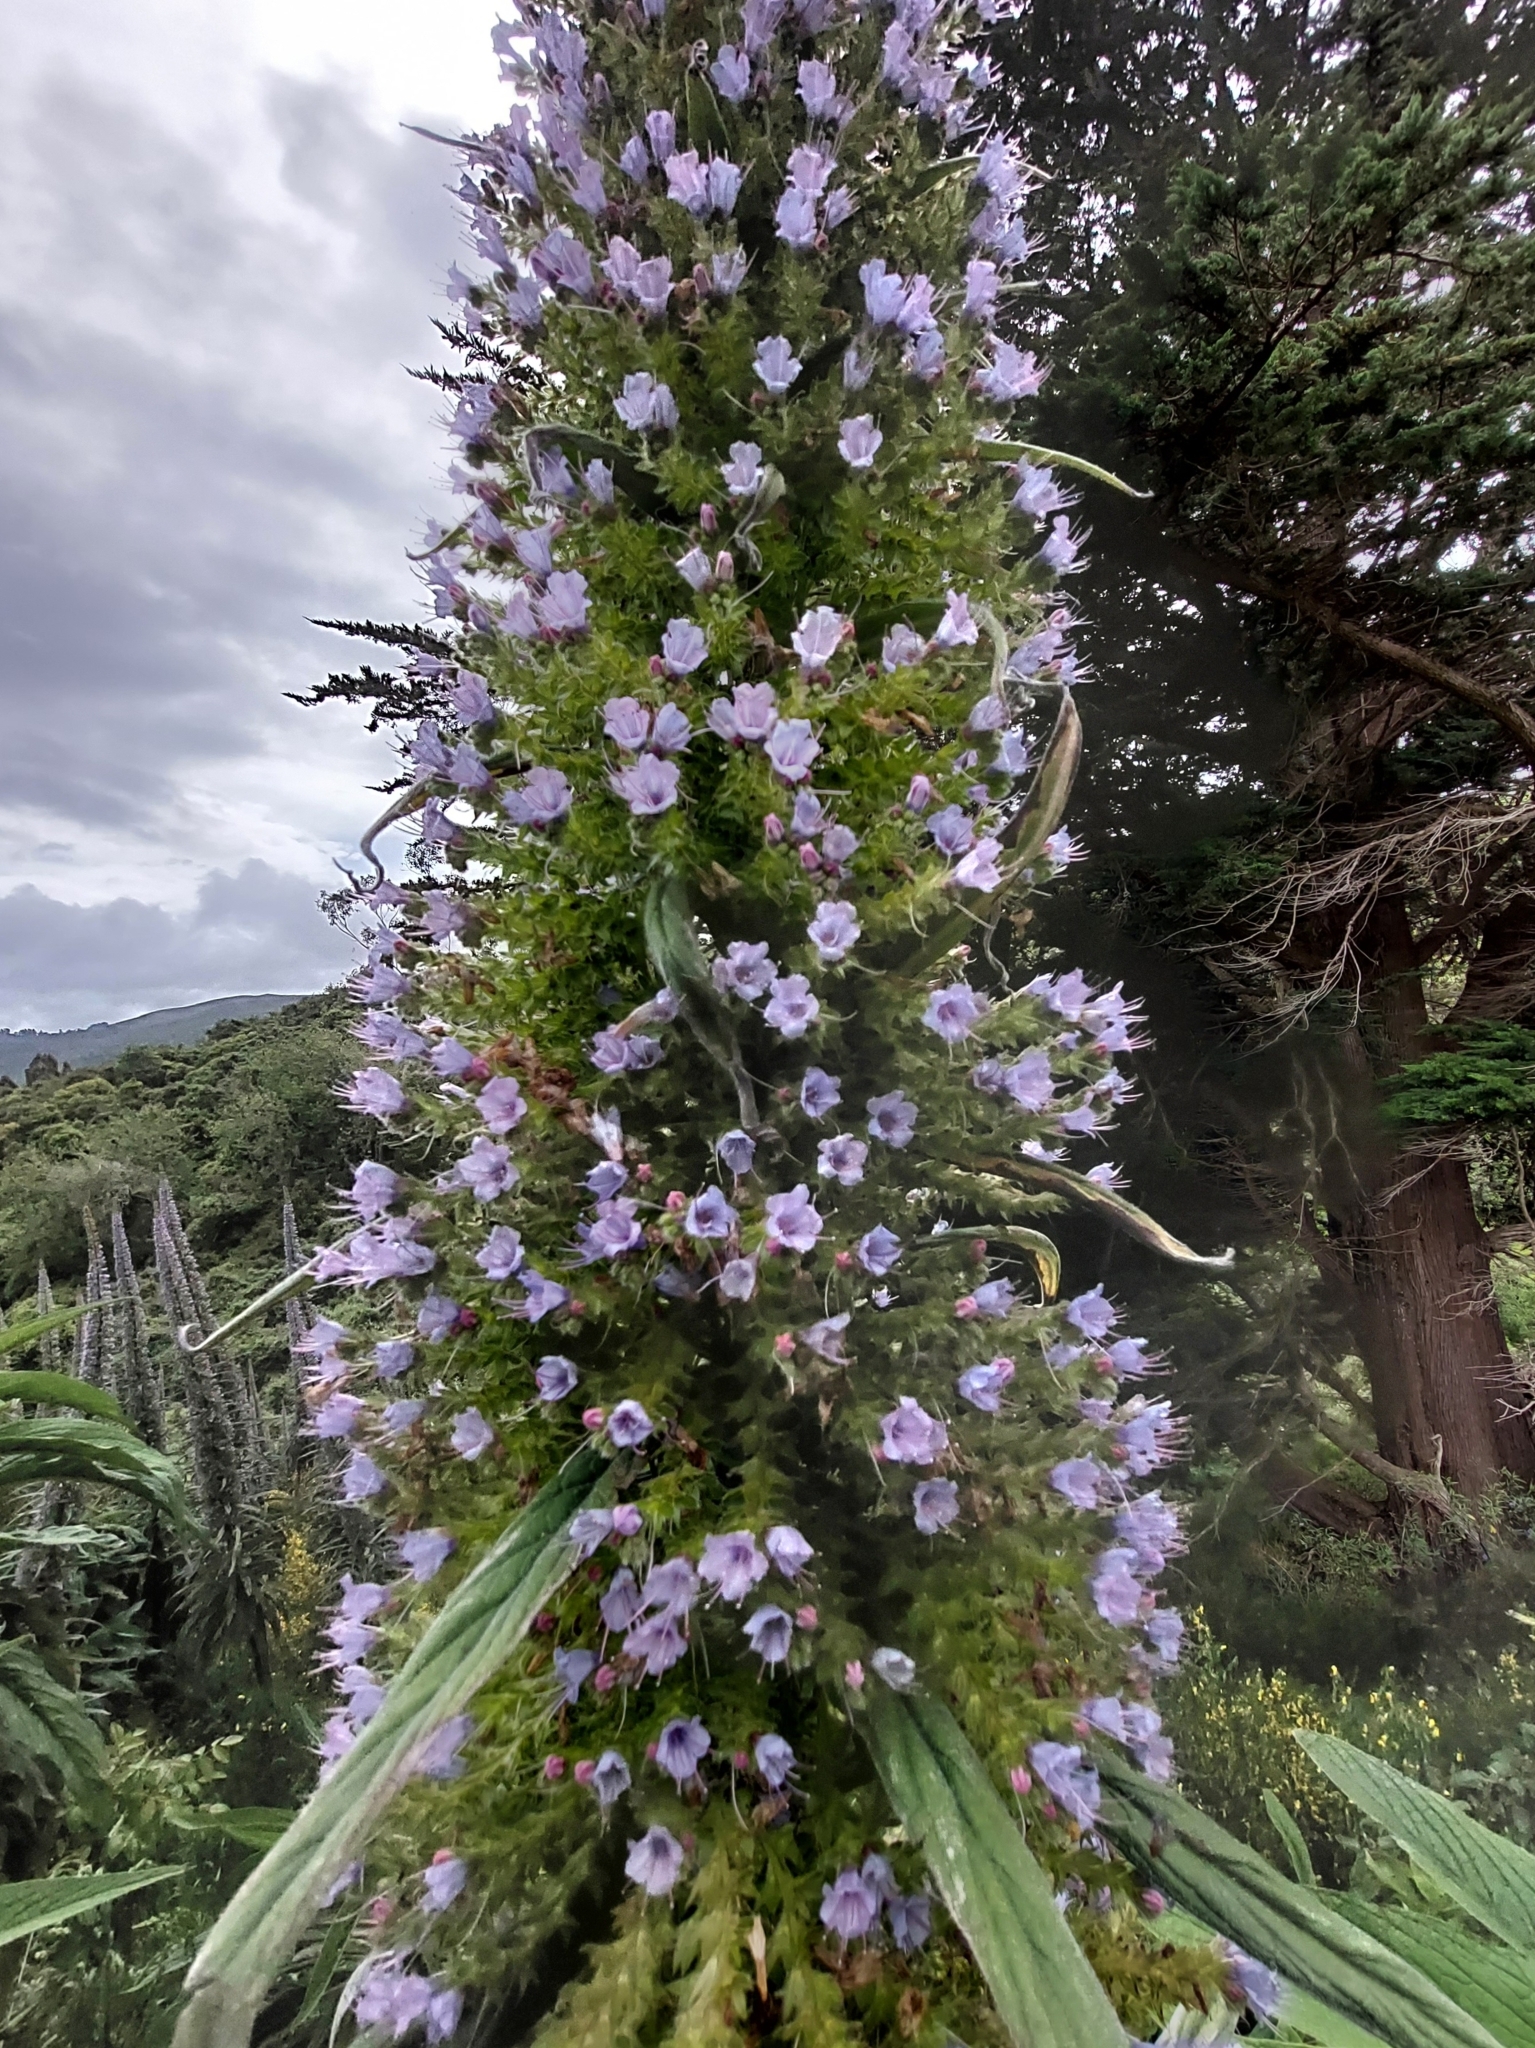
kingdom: Plantae
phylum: Tracheophyta
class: Magnoliopsida
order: Boraginales
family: Boraginaceae
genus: Echium
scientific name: Echium pininana
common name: Giant viper's-bugloss
